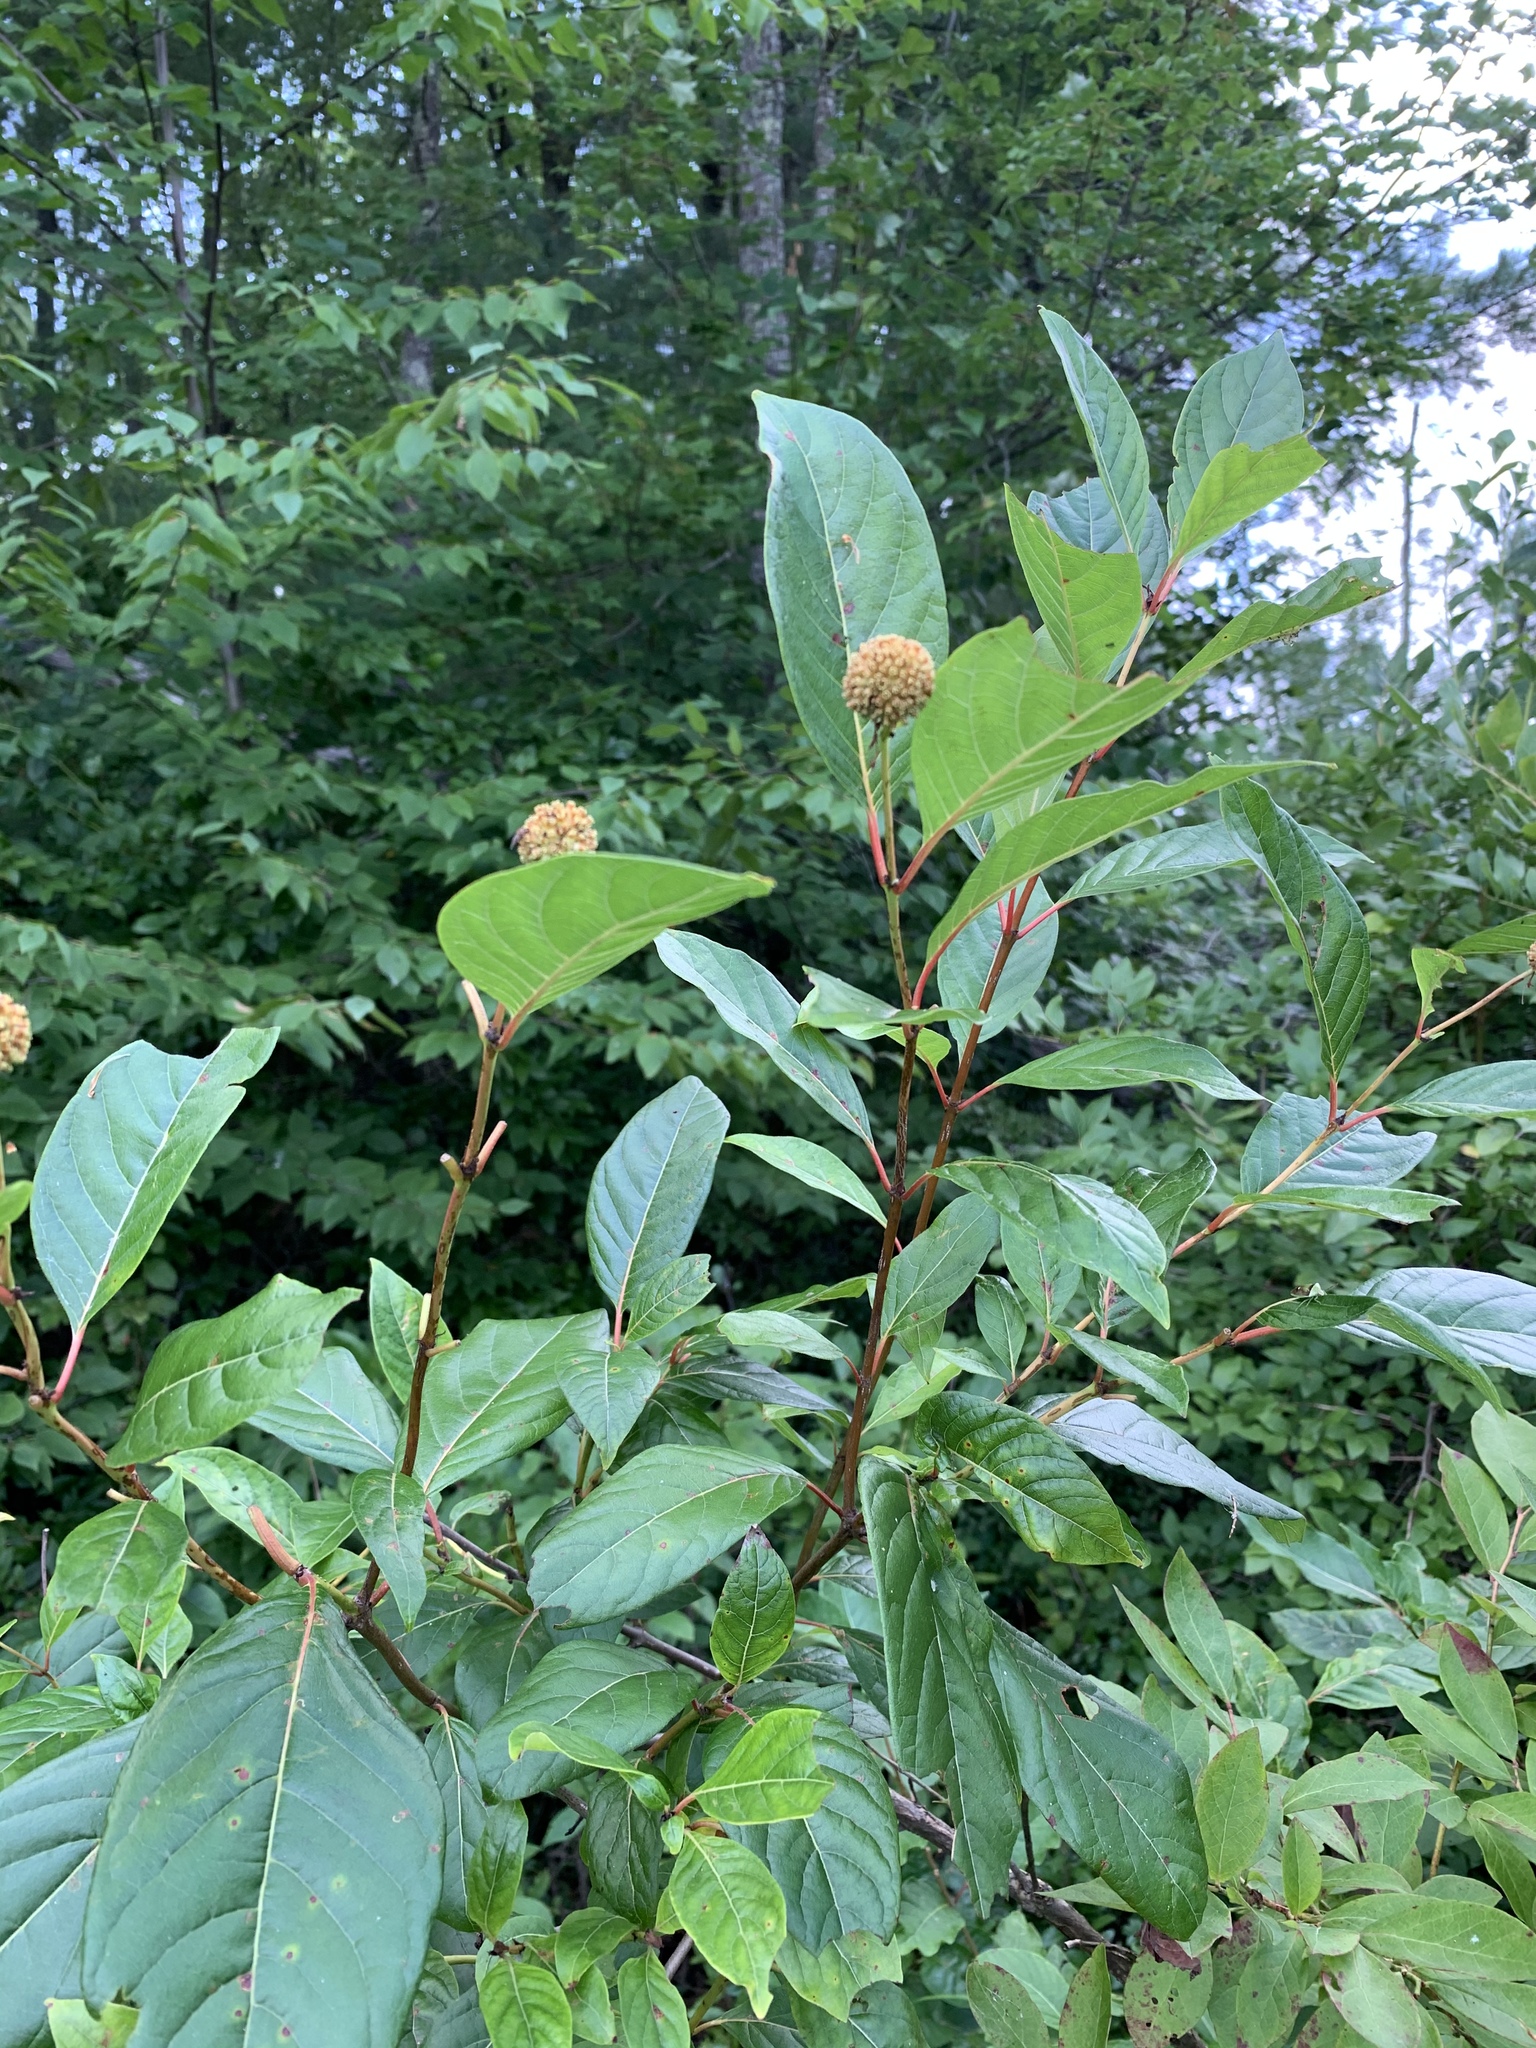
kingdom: Plantae
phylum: Tracheophyta
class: Magnoliopsida
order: Gentianales
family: Rubiaceae
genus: Cephalanthus
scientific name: Cephalanthus occidentalis
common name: Button-willow
